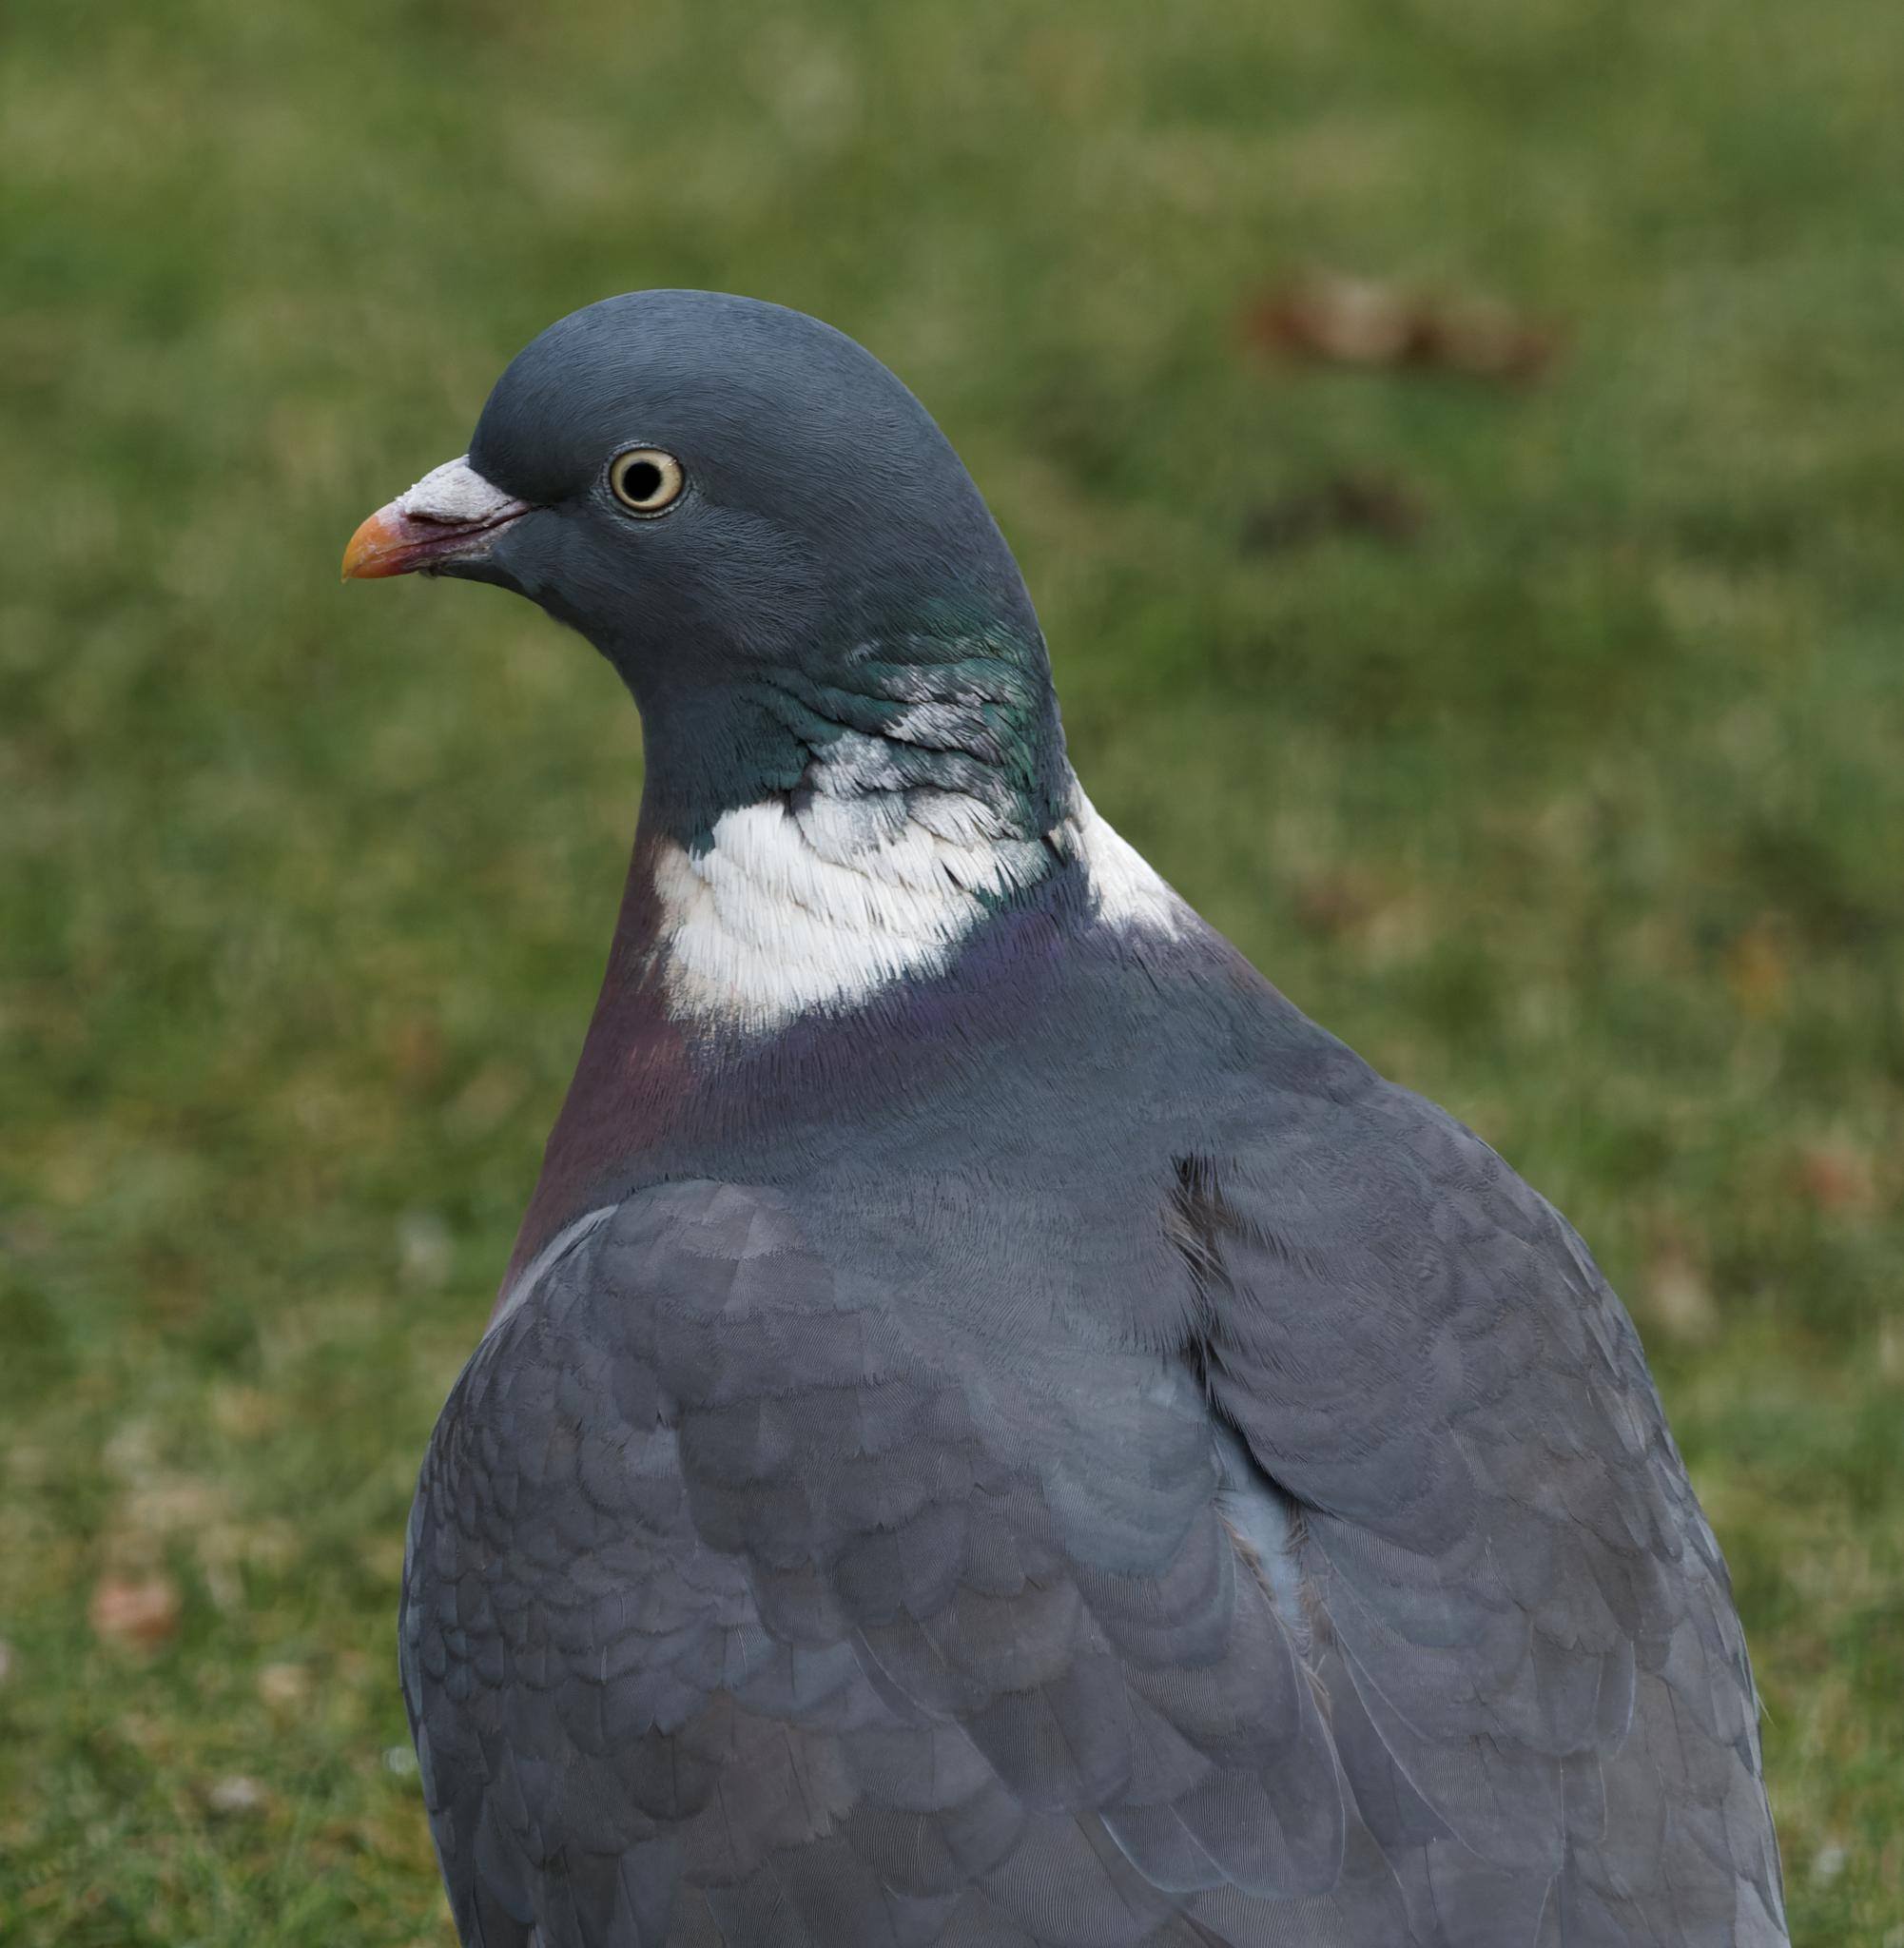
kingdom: Animalia
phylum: Chordata
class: Aves
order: Columbiformes
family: Columbidae
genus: Columba
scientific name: Columba palumbus
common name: Common wood pigeon
